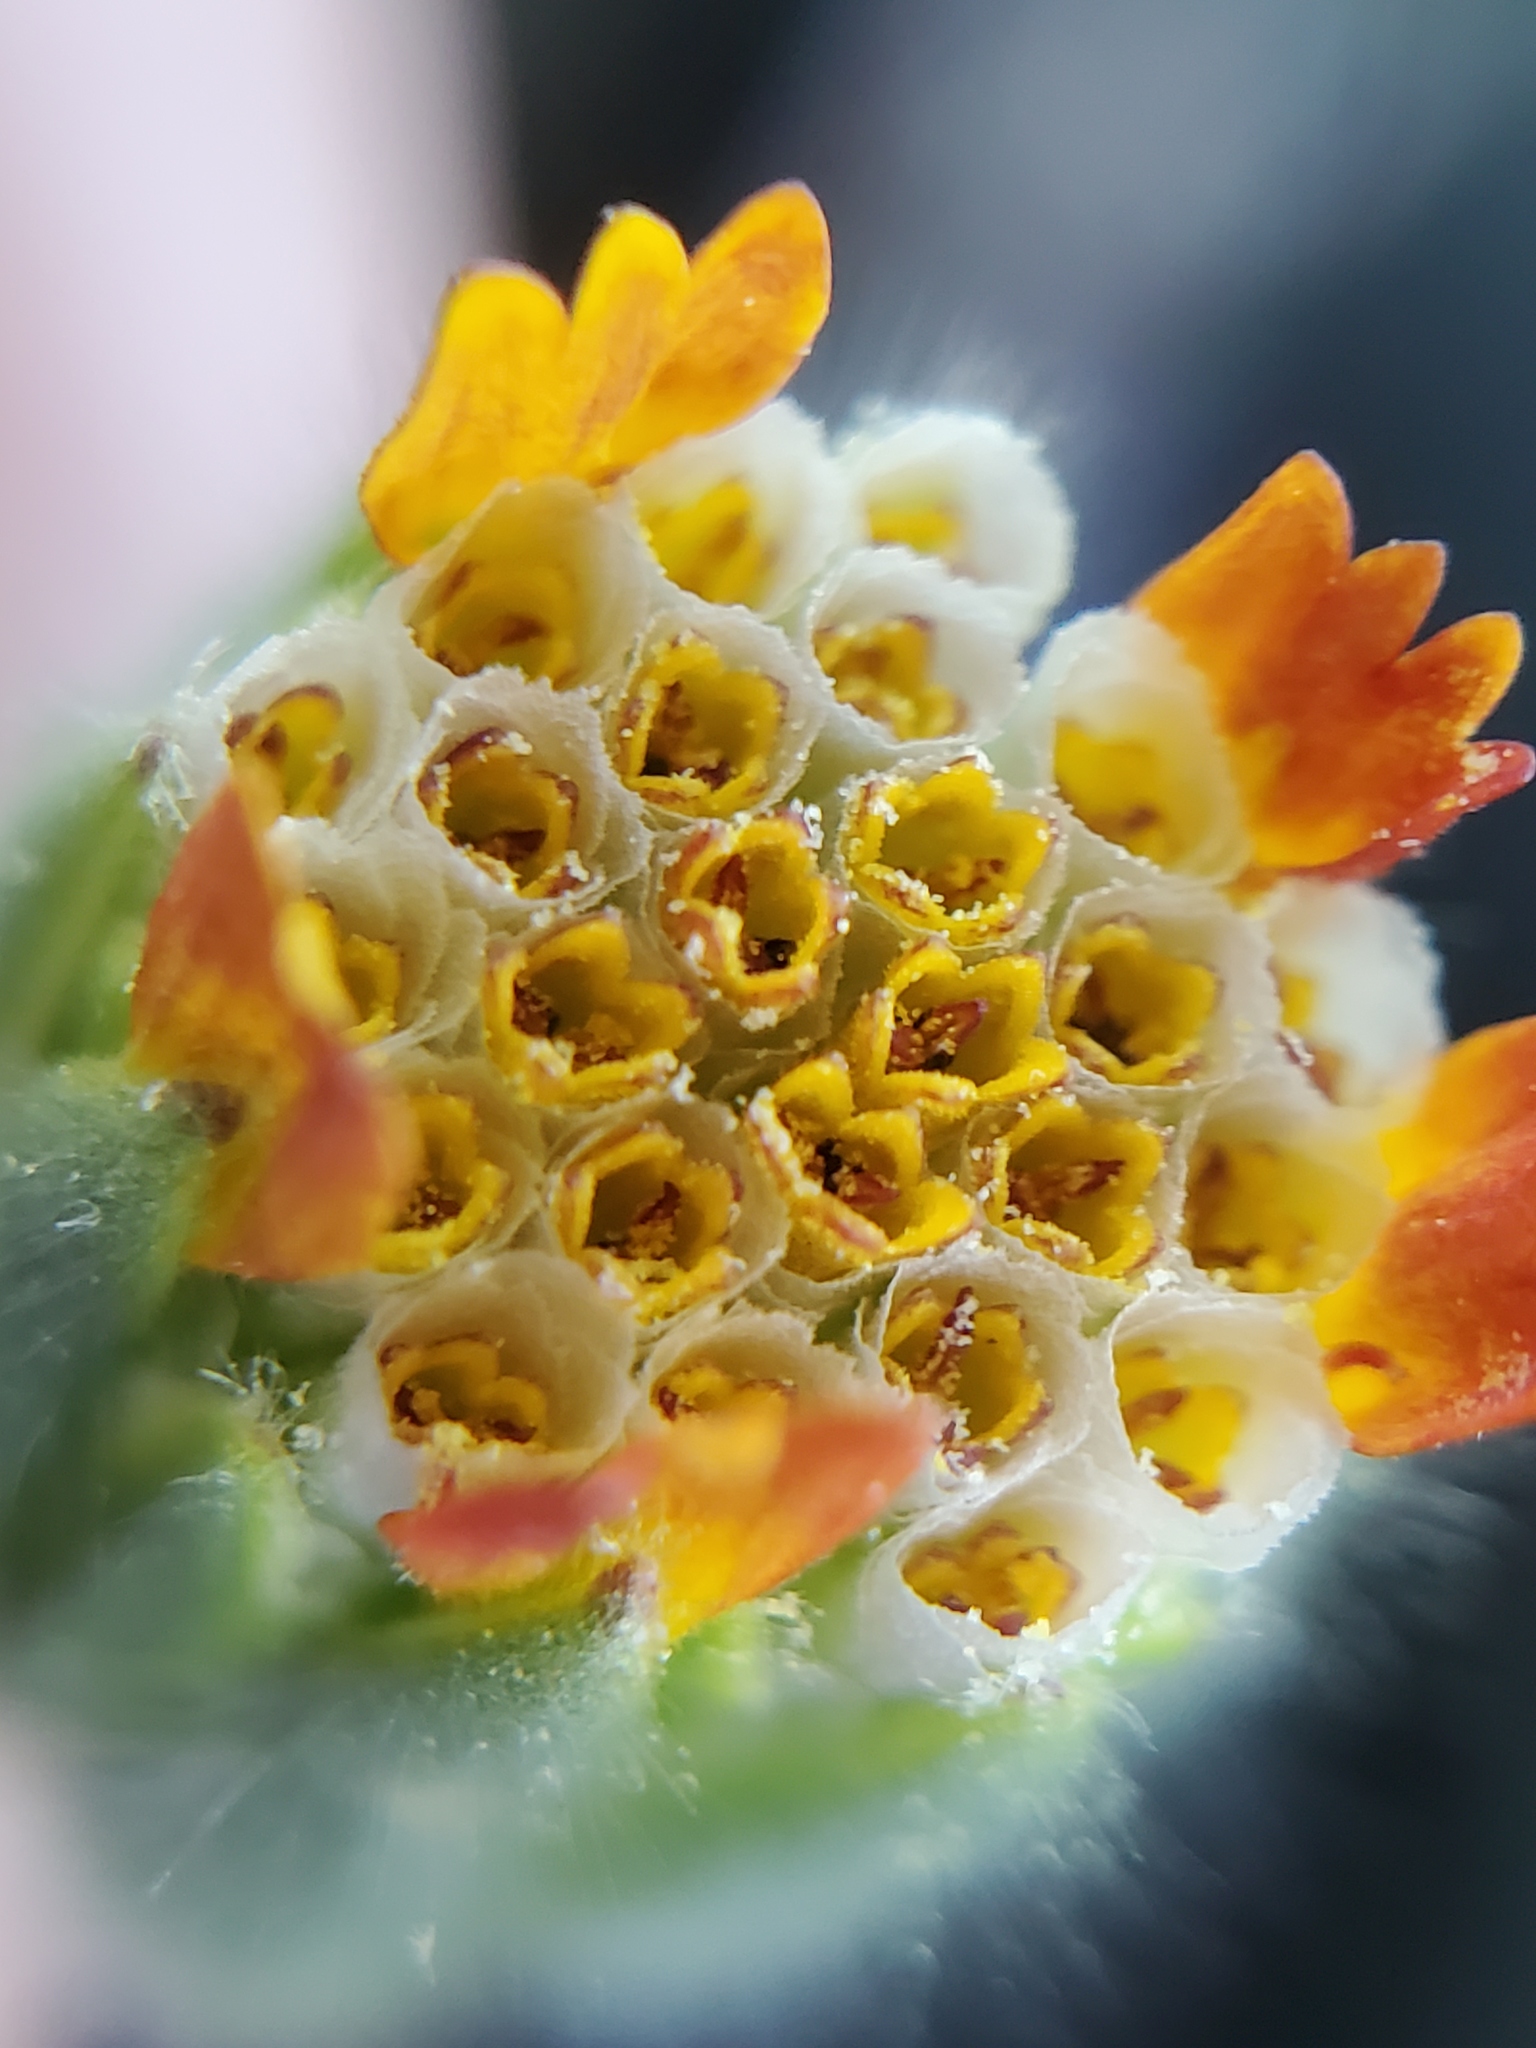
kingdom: Plantae
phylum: Tracheophyta
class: Magnoliopsida
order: Asterales
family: Asteraceae
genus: Achyrachaena
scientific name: Achyrachaena mollis
